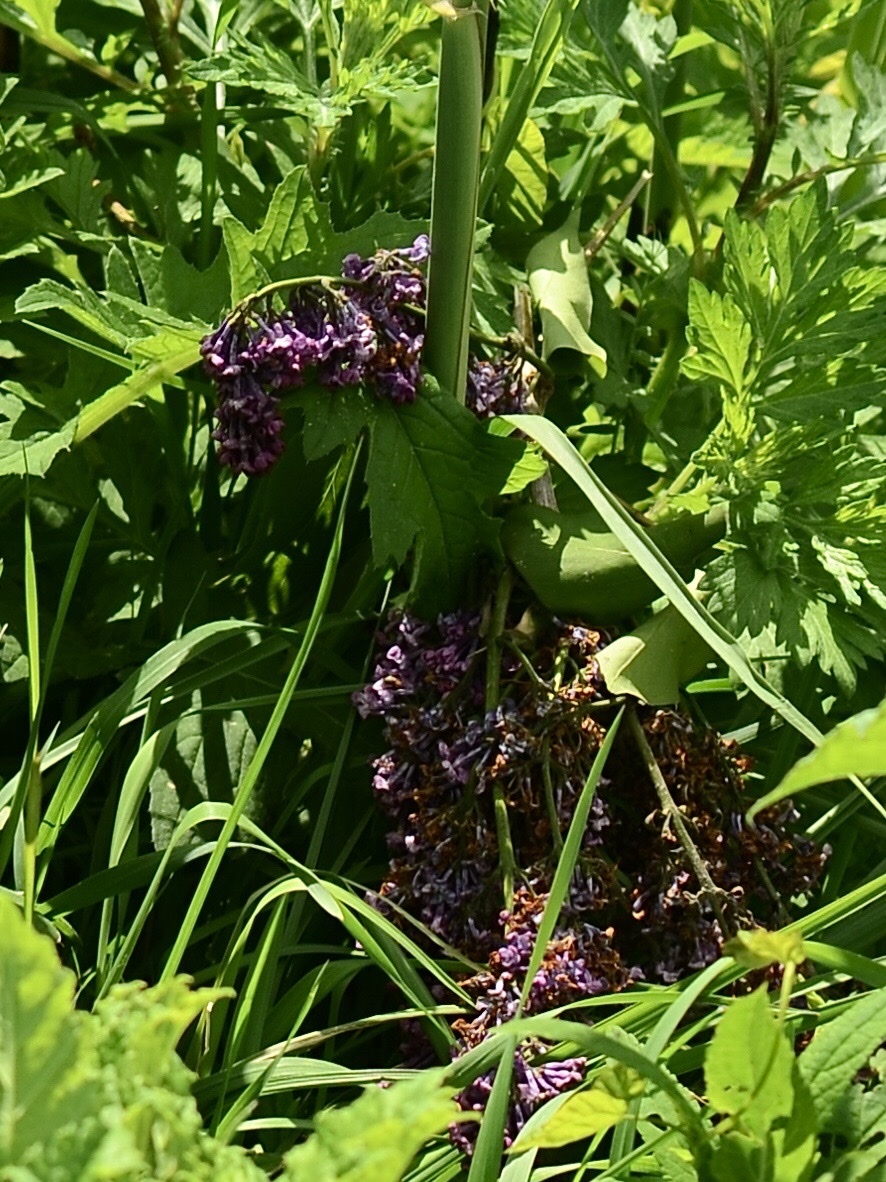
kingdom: Plantae
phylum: Tracheophyta
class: Magnoliopsida
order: Lamiales
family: Oleaceae
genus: Syringa
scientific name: Syringa vulgaris
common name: Common lilac
